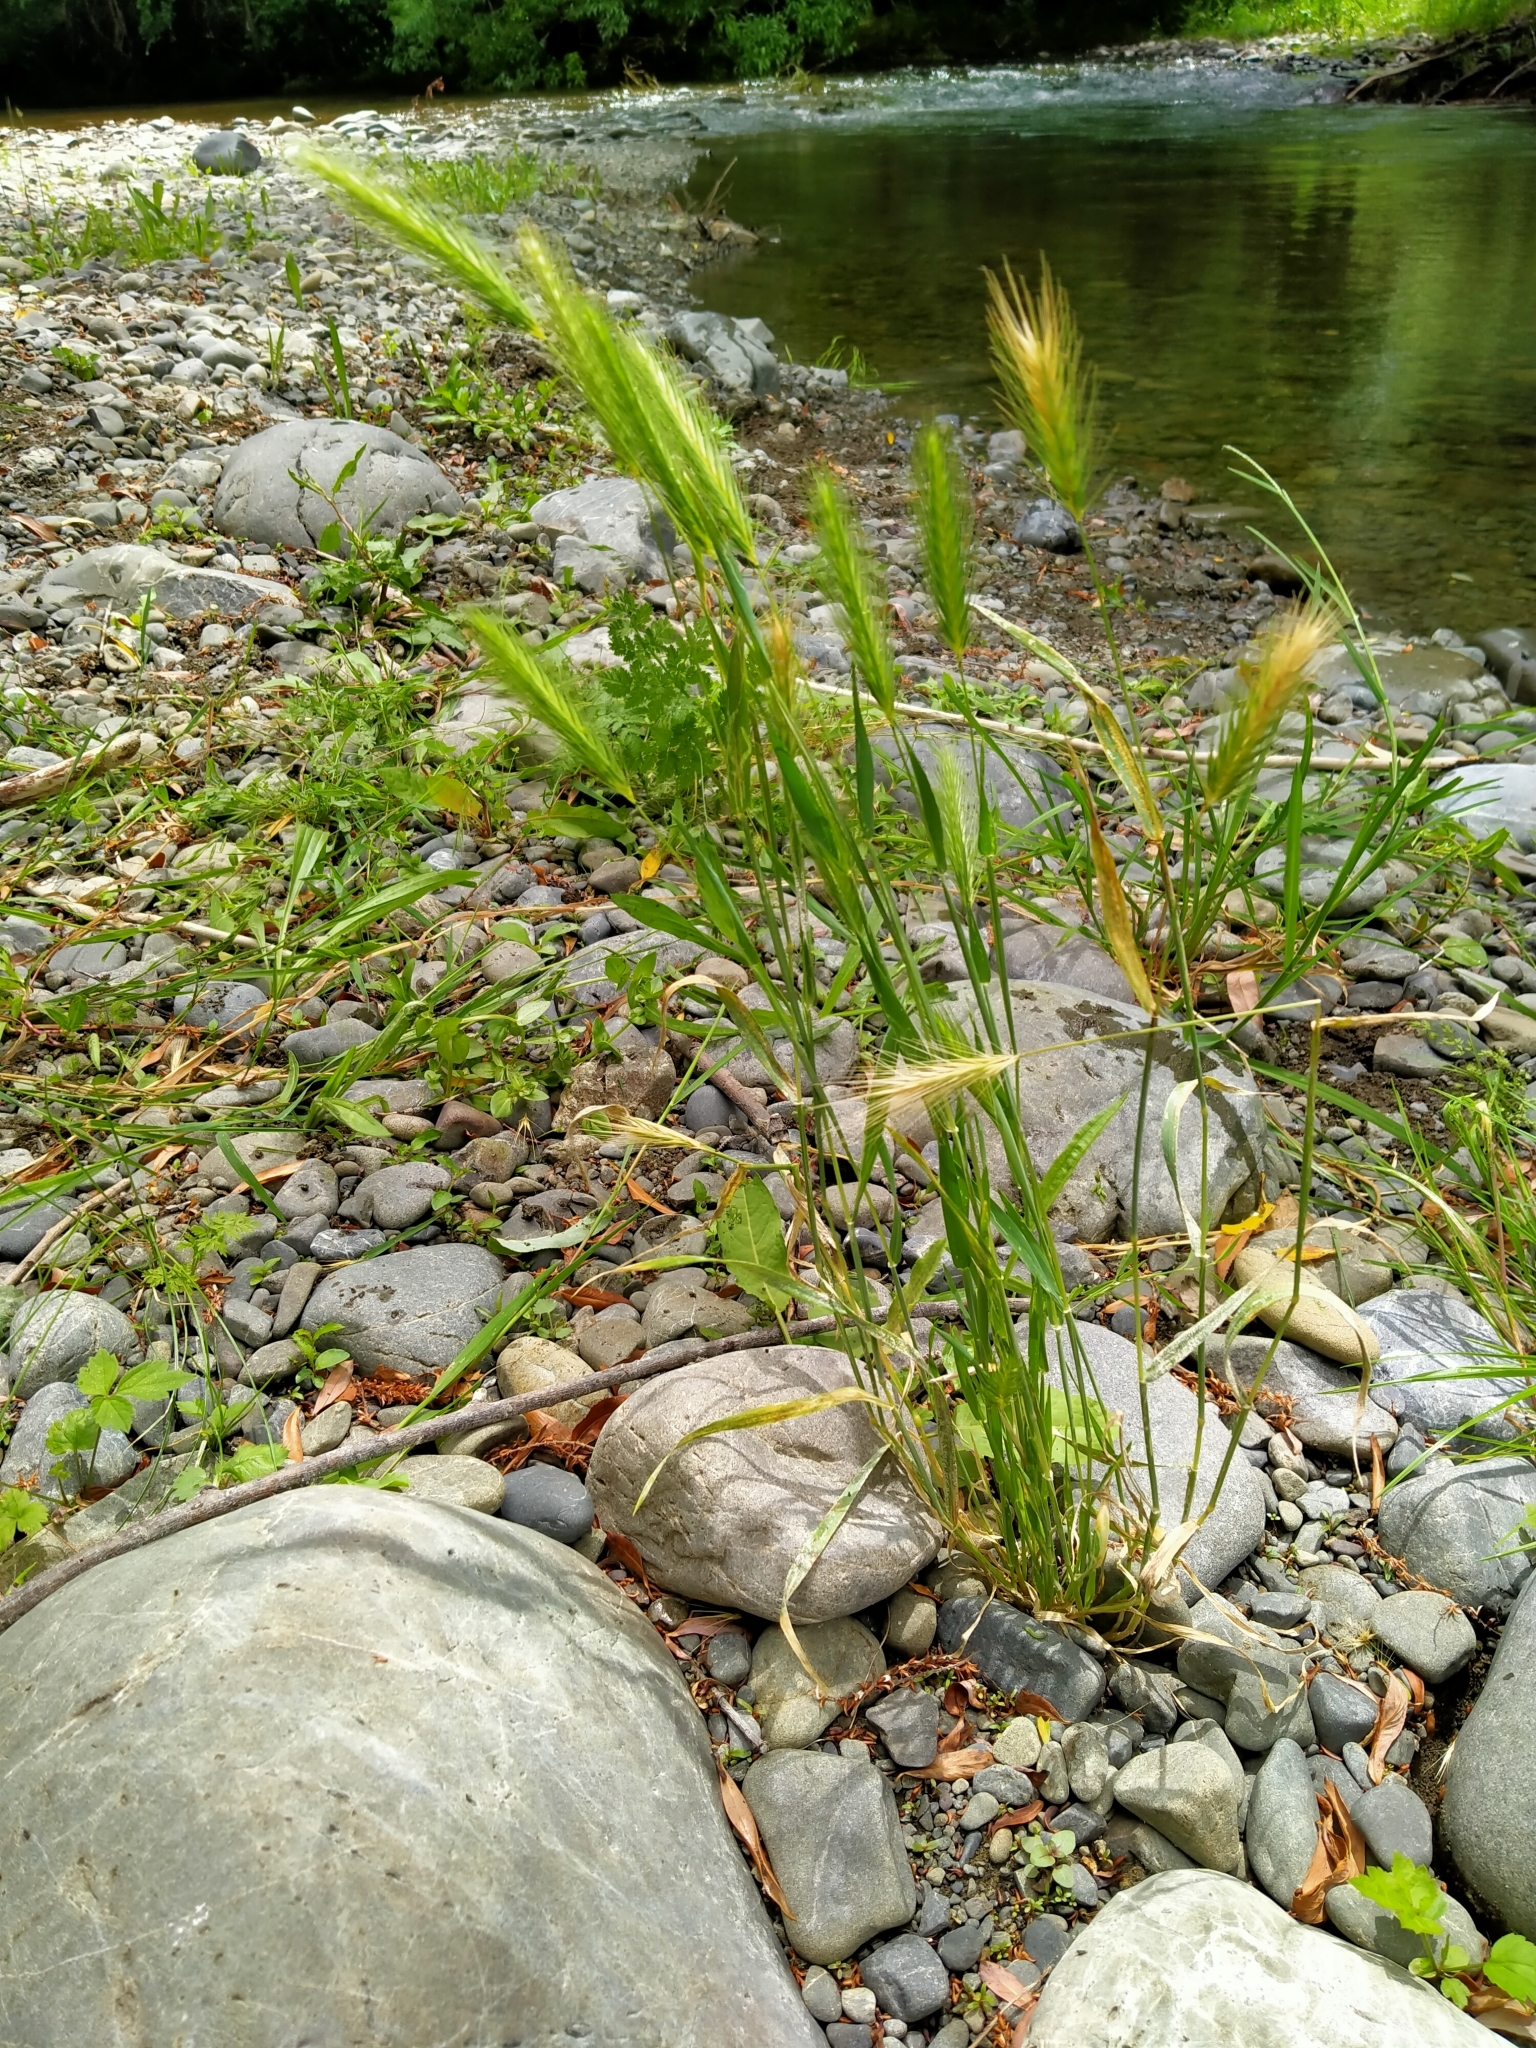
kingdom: Plantae
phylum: Tracheophyta
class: Liliopsida
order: Poales
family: Poaceae
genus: Hordeum
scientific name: Hordeum murinum
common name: Wall barley
